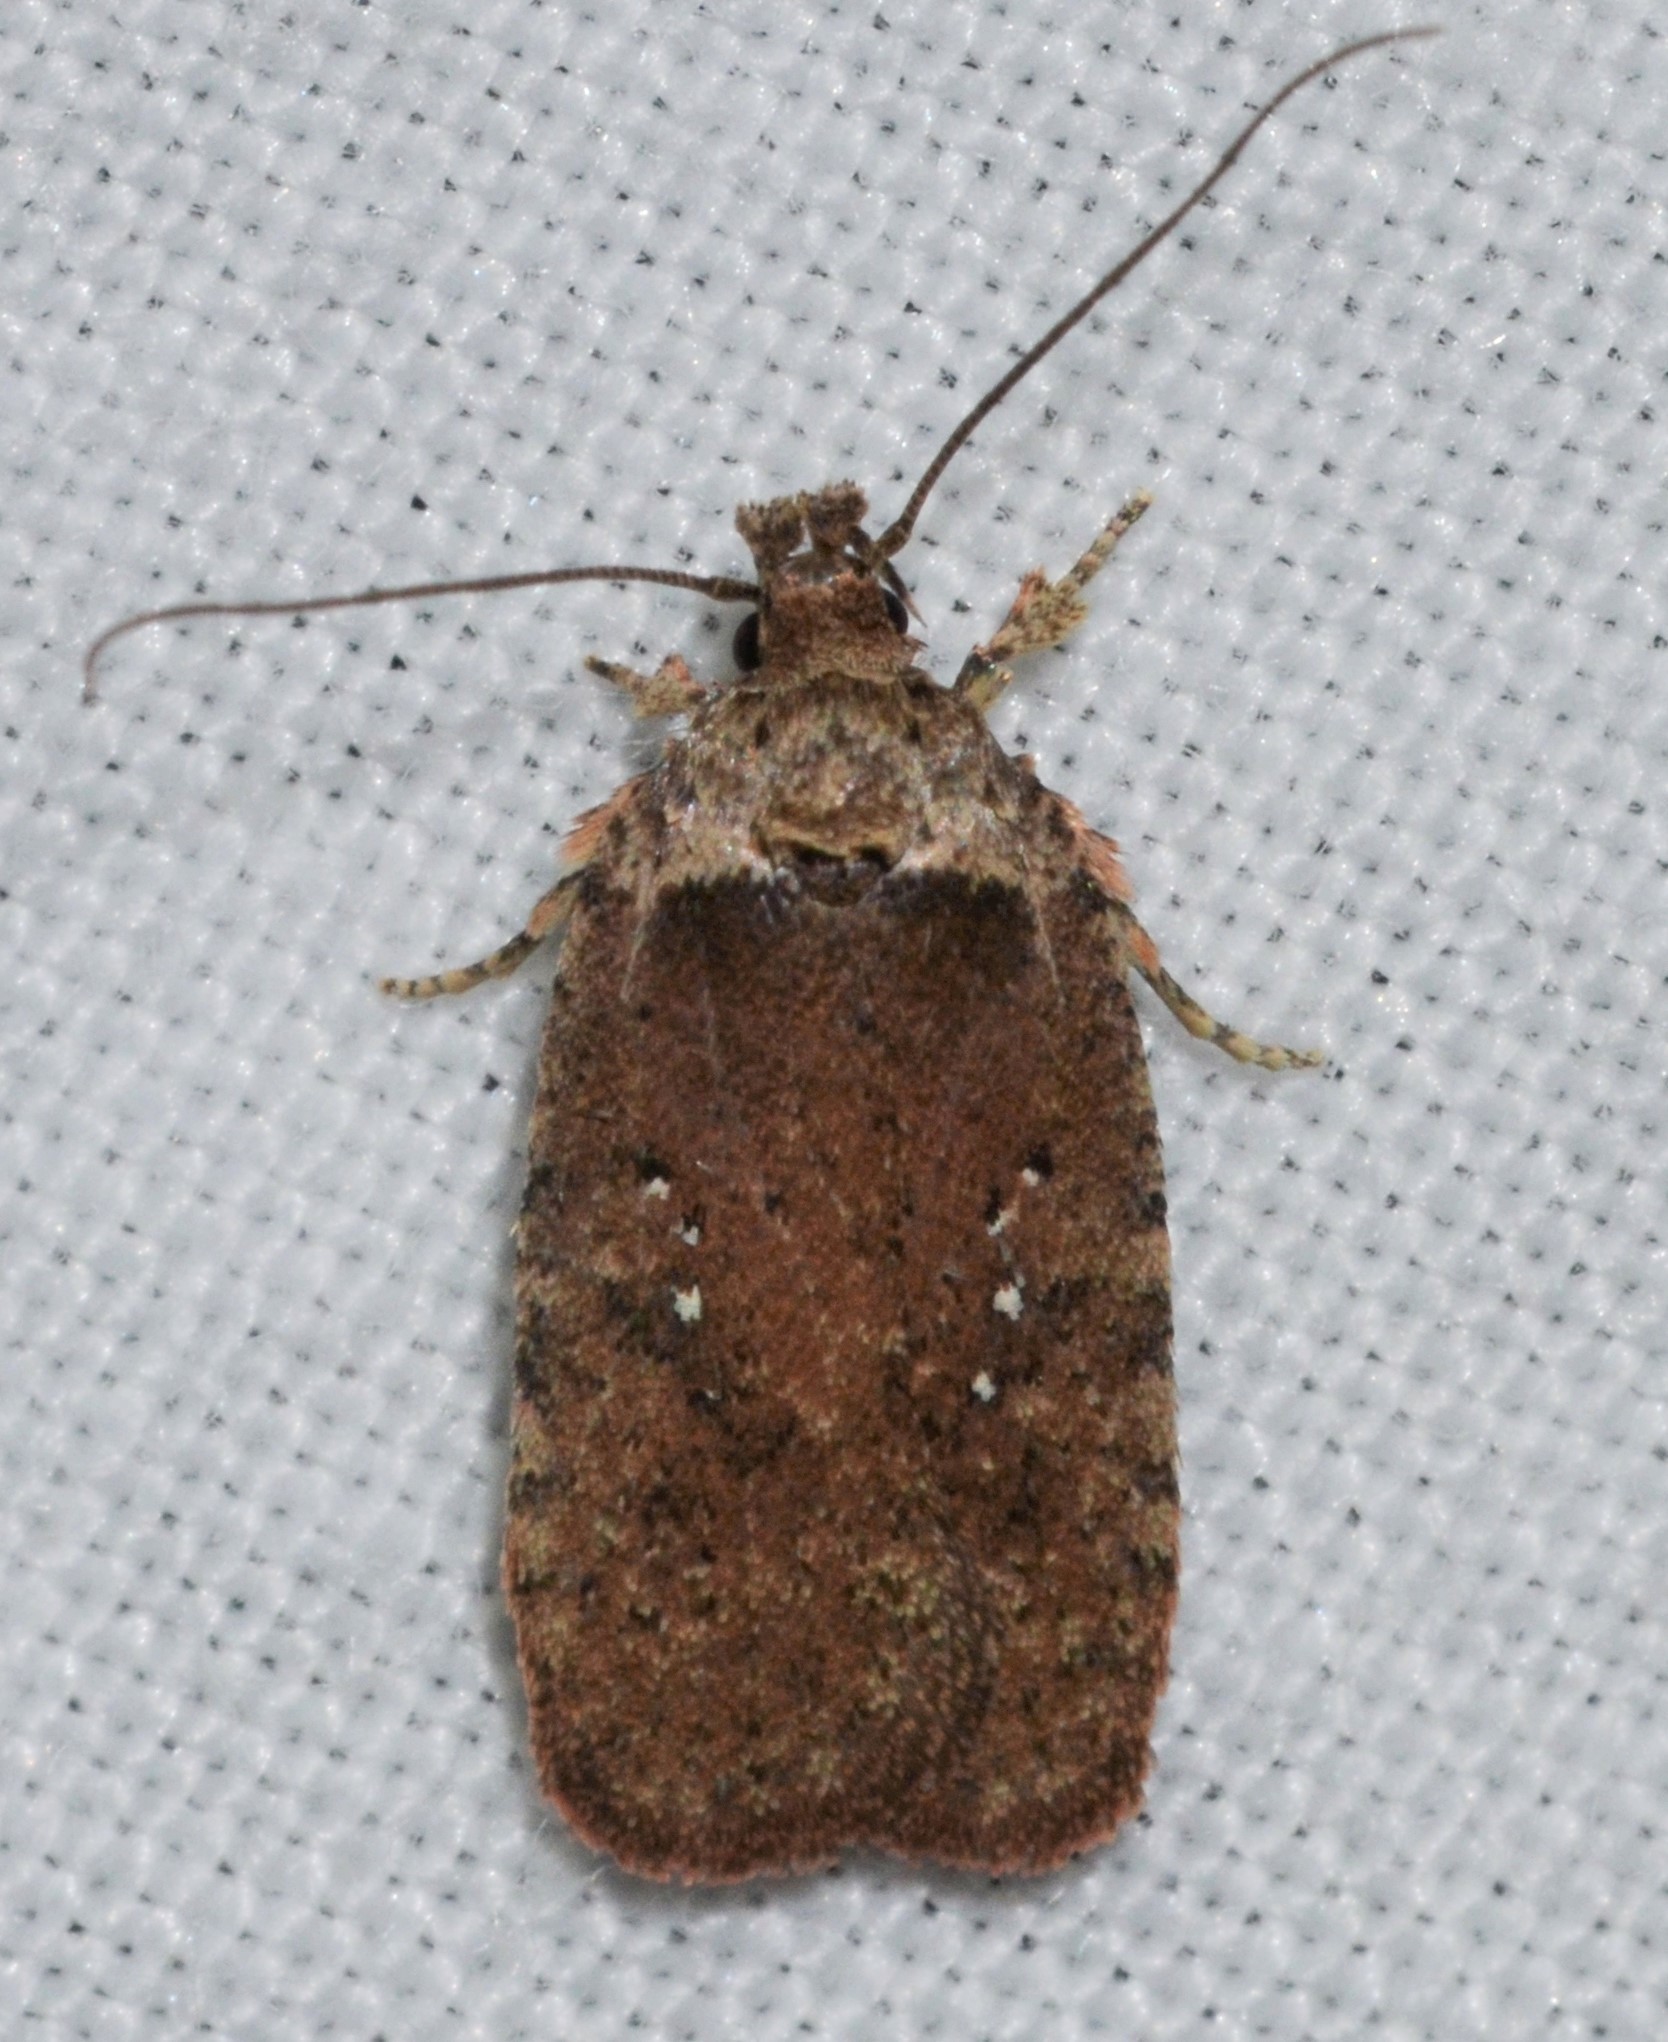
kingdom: Animalia
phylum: Arthropoda
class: Insecta
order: Lepidoptera
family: Depressariidae
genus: Agonopterix
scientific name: Agonopterix clemensella
